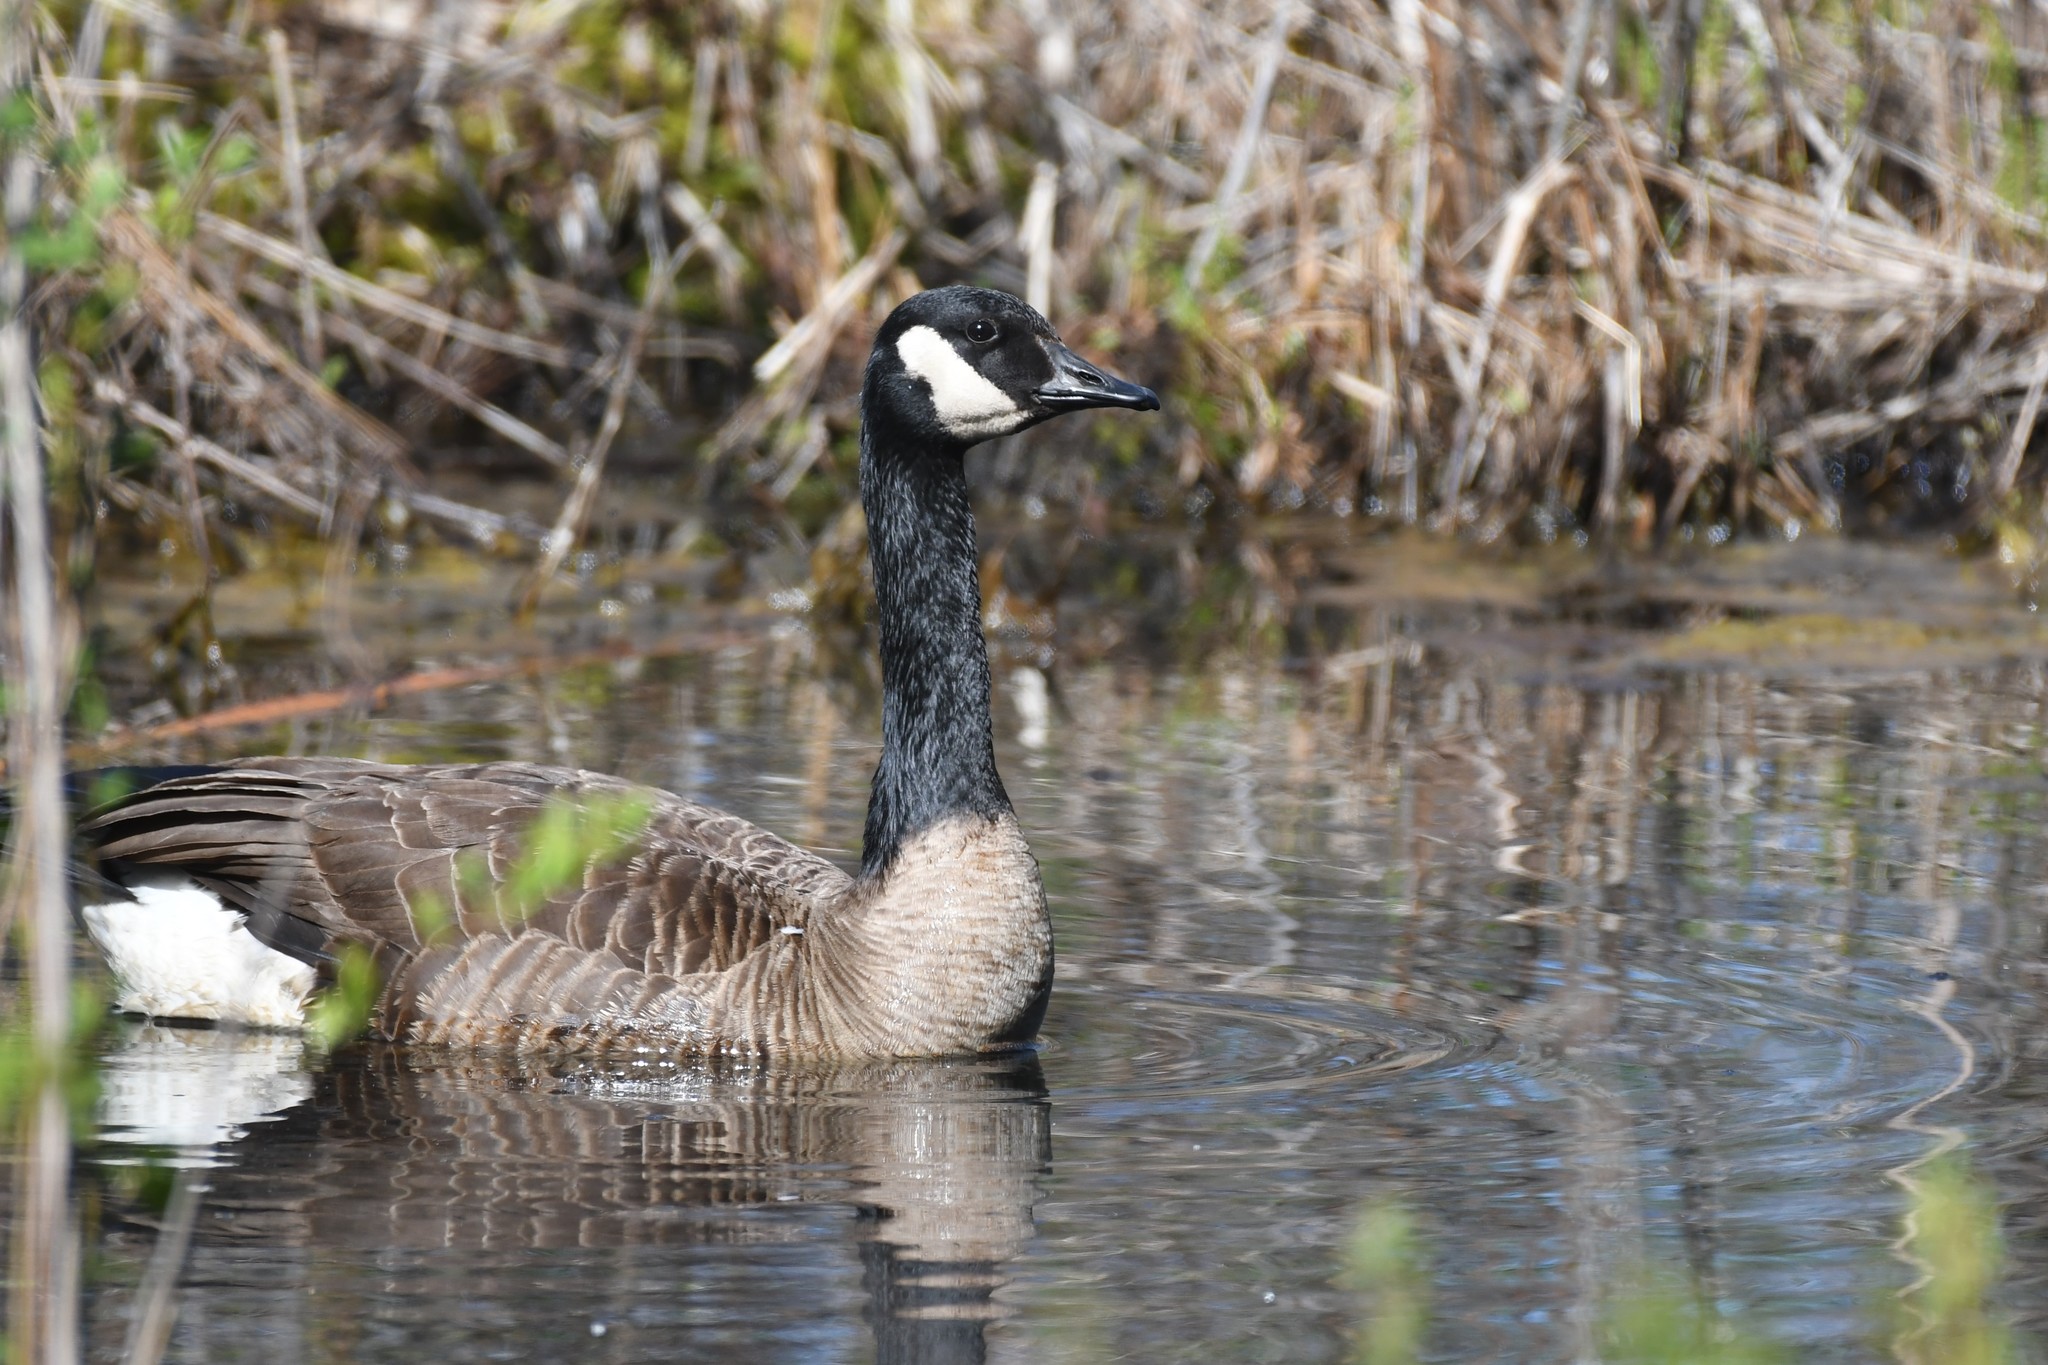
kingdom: Animalia
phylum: Chordata
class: Aves
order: Anseriformes
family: Anatidae
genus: Branta
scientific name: Branta canadensis
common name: Canada goose
